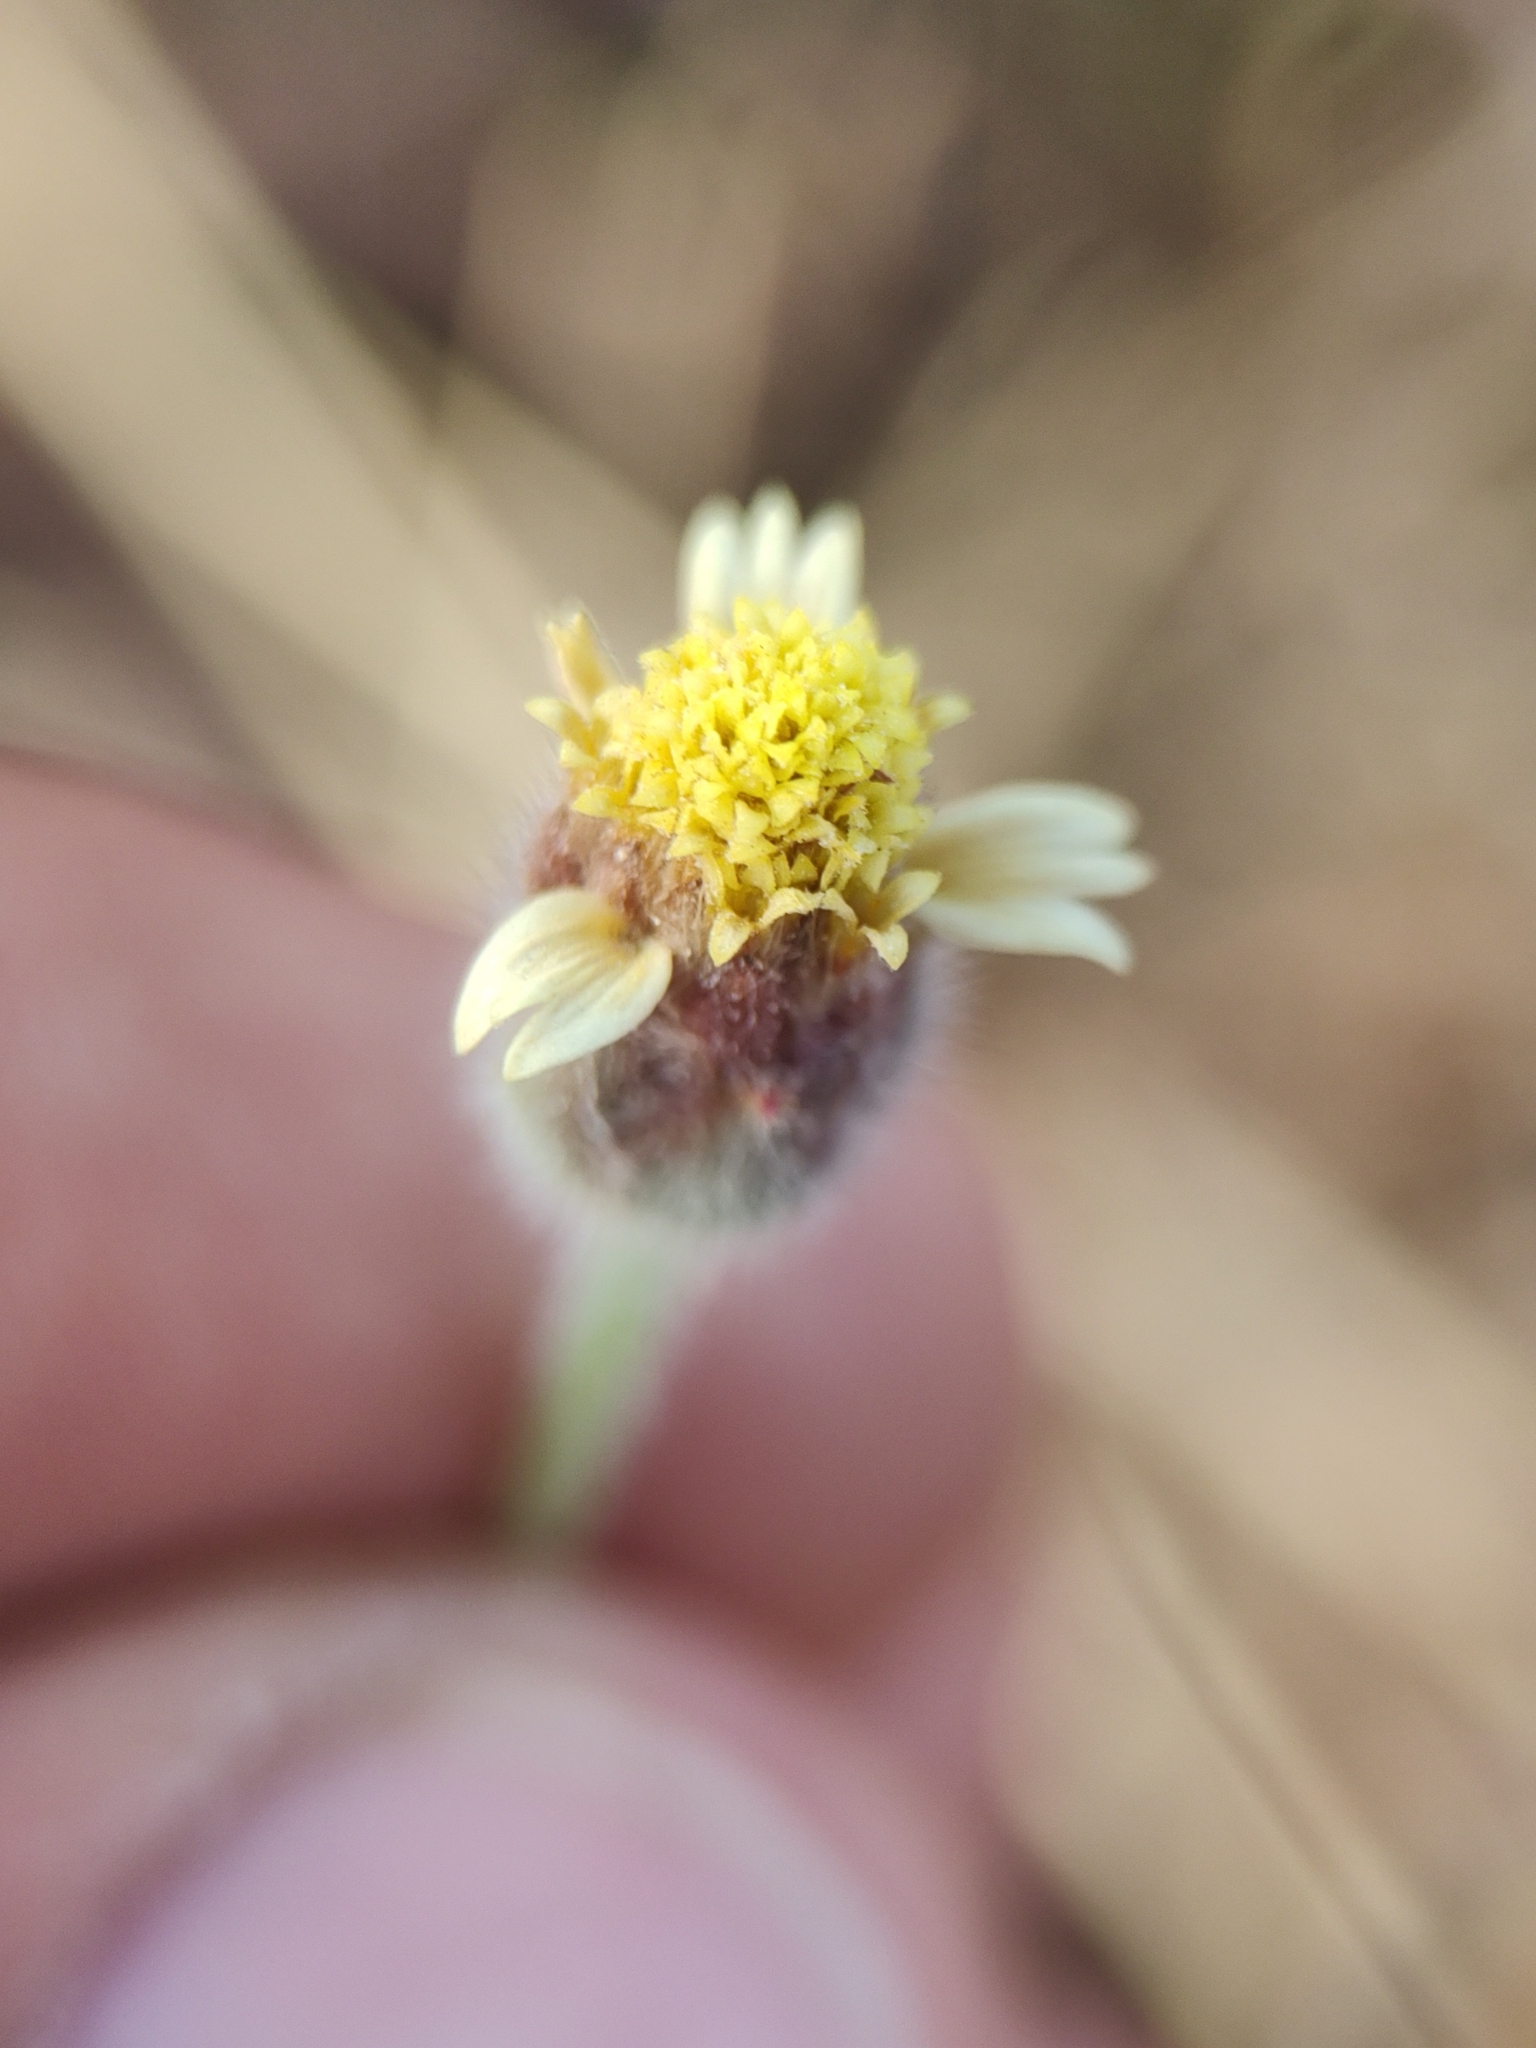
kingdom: Plantae
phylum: Tracheophyta
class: Magnoliopsida
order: Asterales
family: Asteraceae
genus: Tridax
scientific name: Tridax procumbens
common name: Coatbuttons
